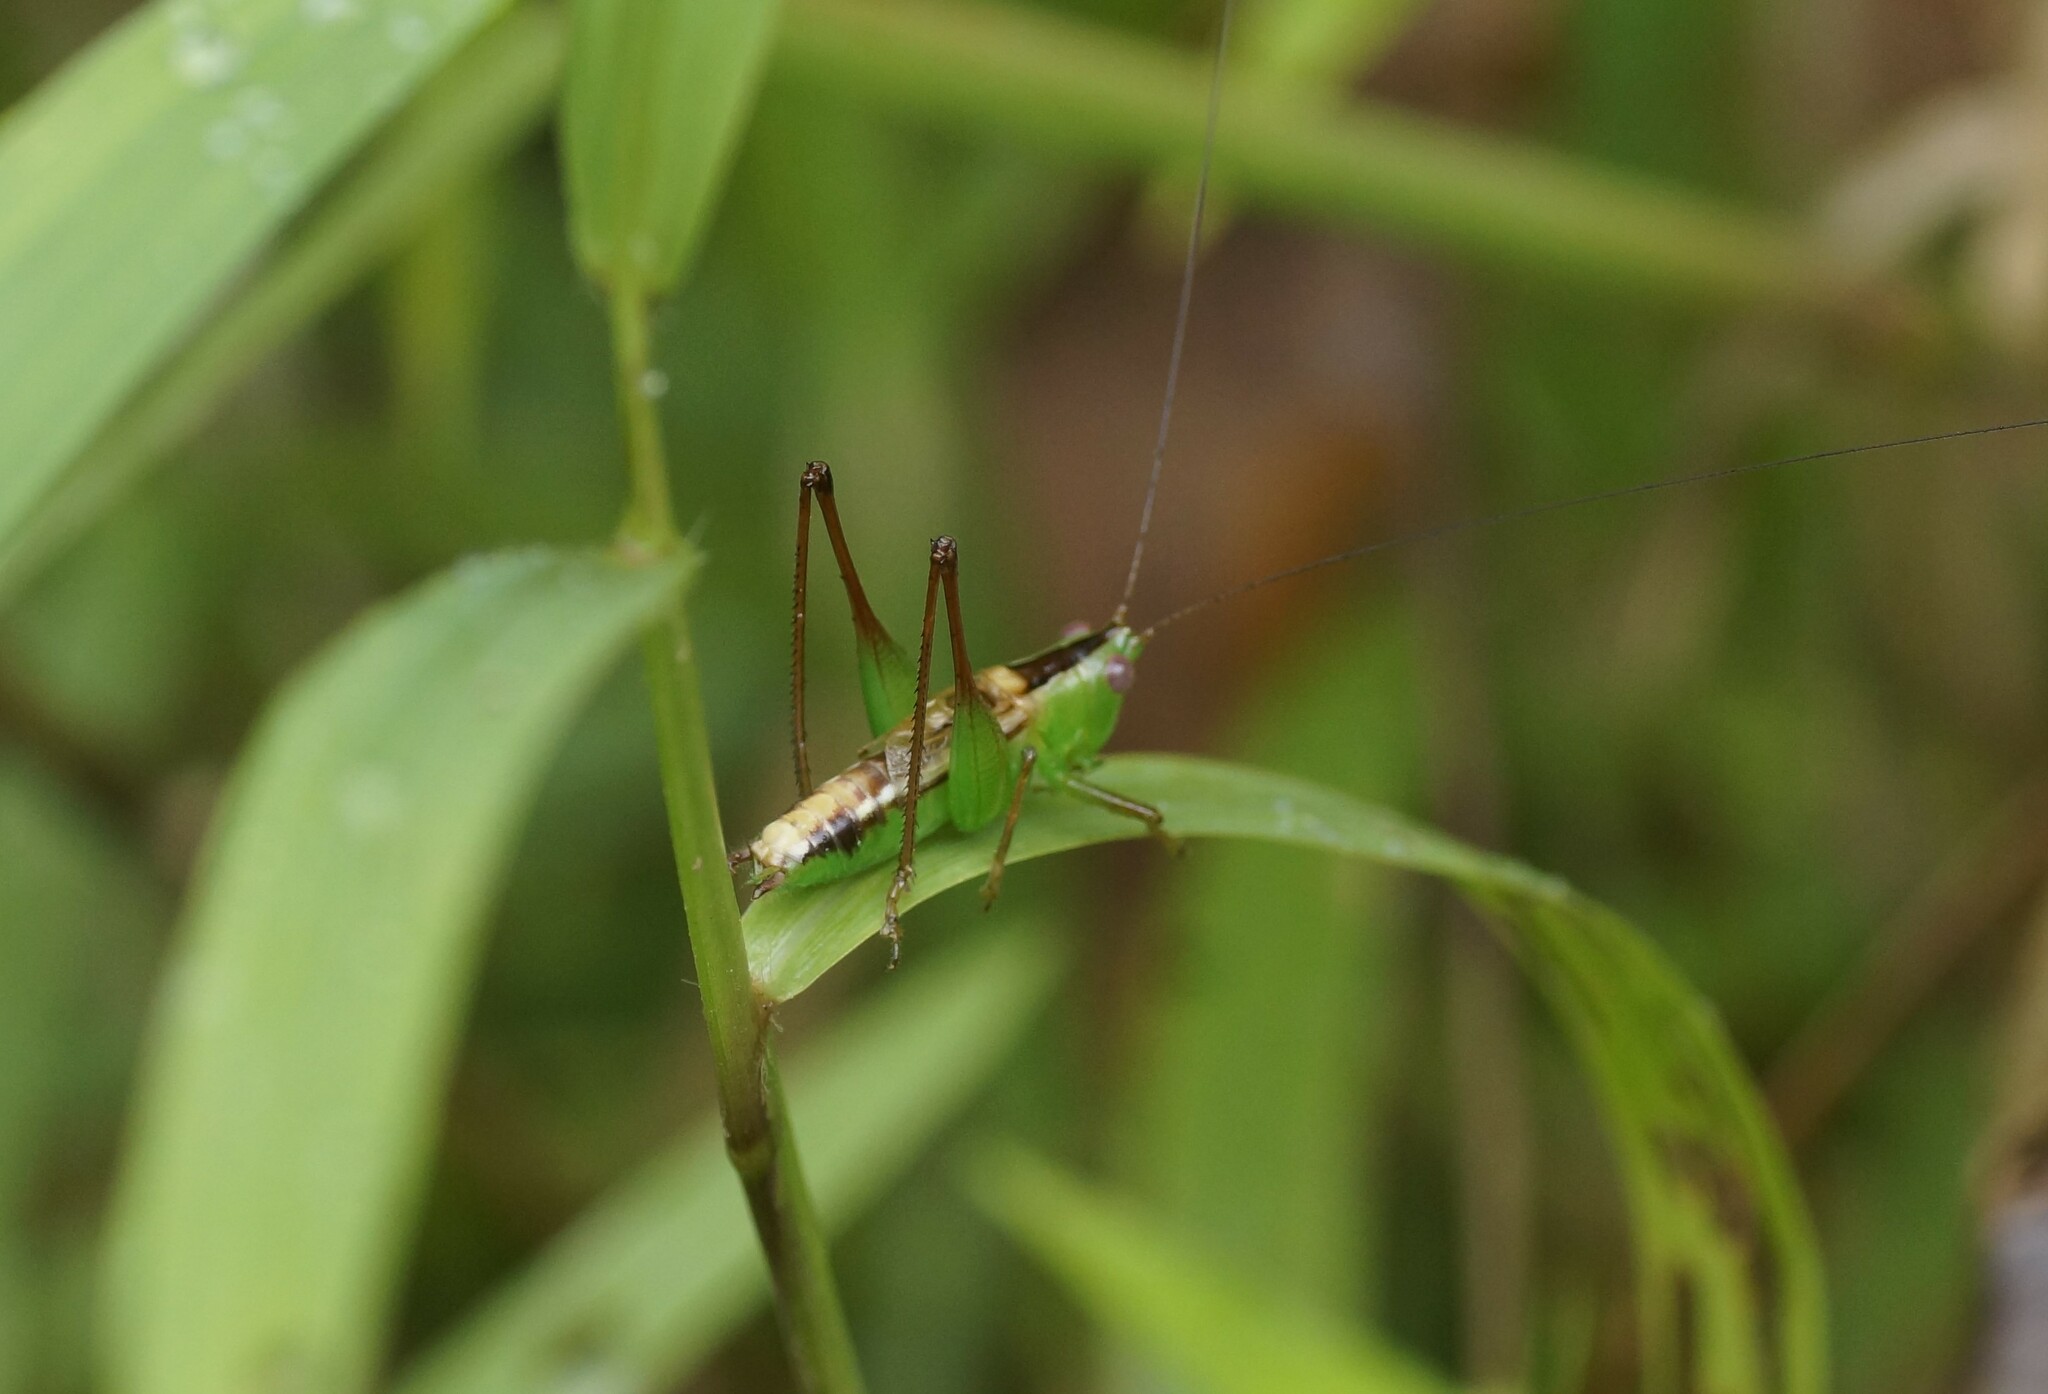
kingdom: Animalia
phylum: Arthropoda
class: Insecta
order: Orthoptera
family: Tettigoniidae
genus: Conocephalus
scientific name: Conocephalus semivittatus
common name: Blackish meadow katydid
